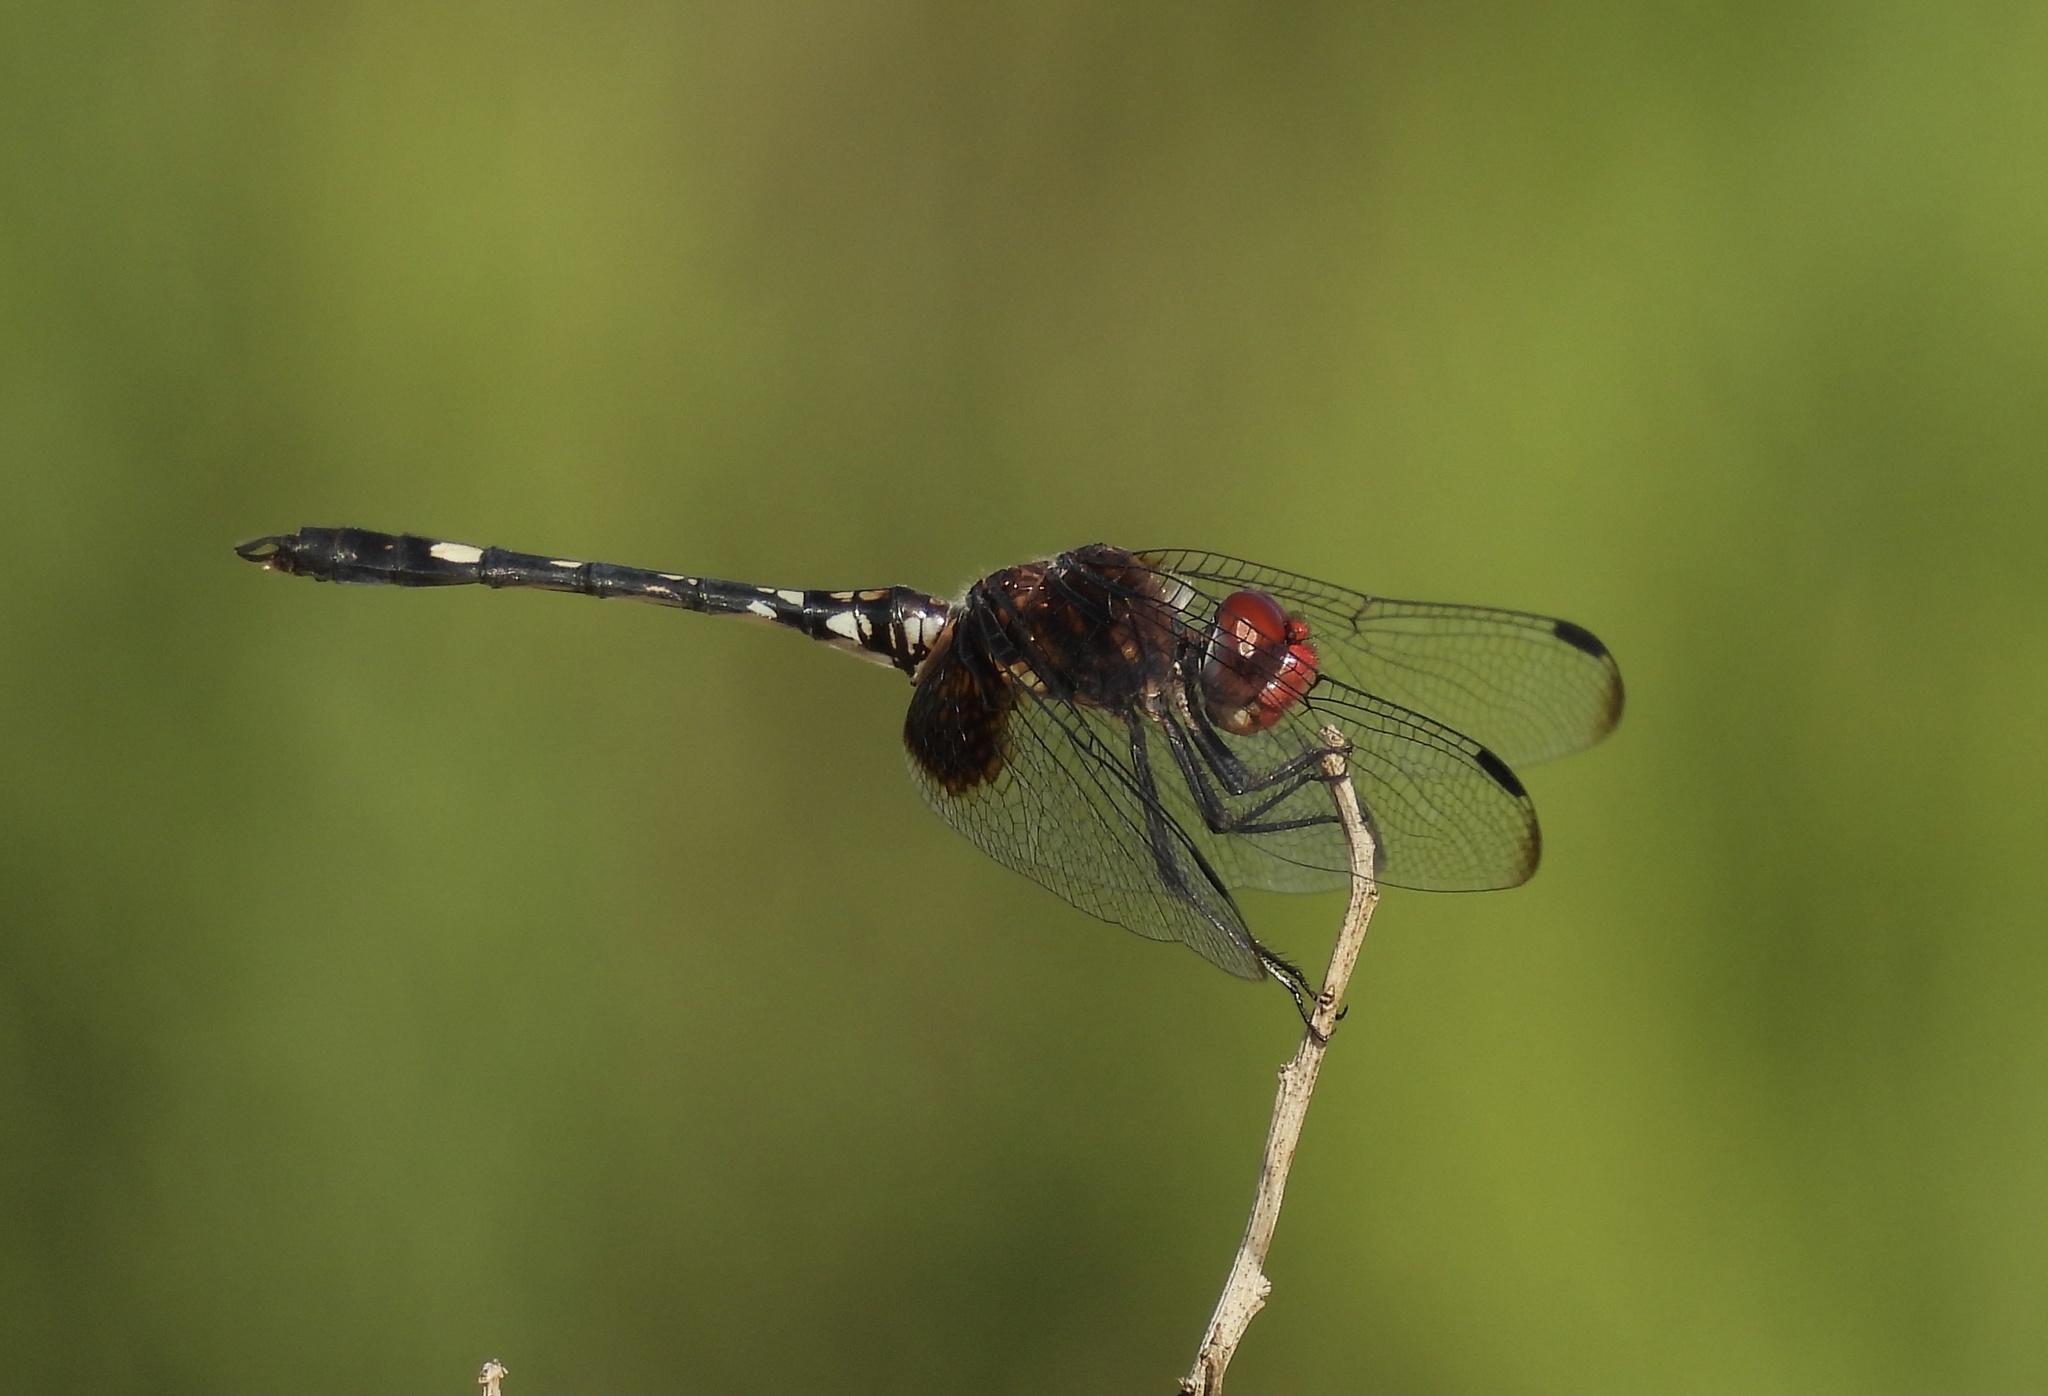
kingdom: Animalia
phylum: Arthropoda
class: Insecta
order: Odonata
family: Libellulidae
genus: Dythemis
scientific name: Dythemis fugax
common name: Checkered setwing
